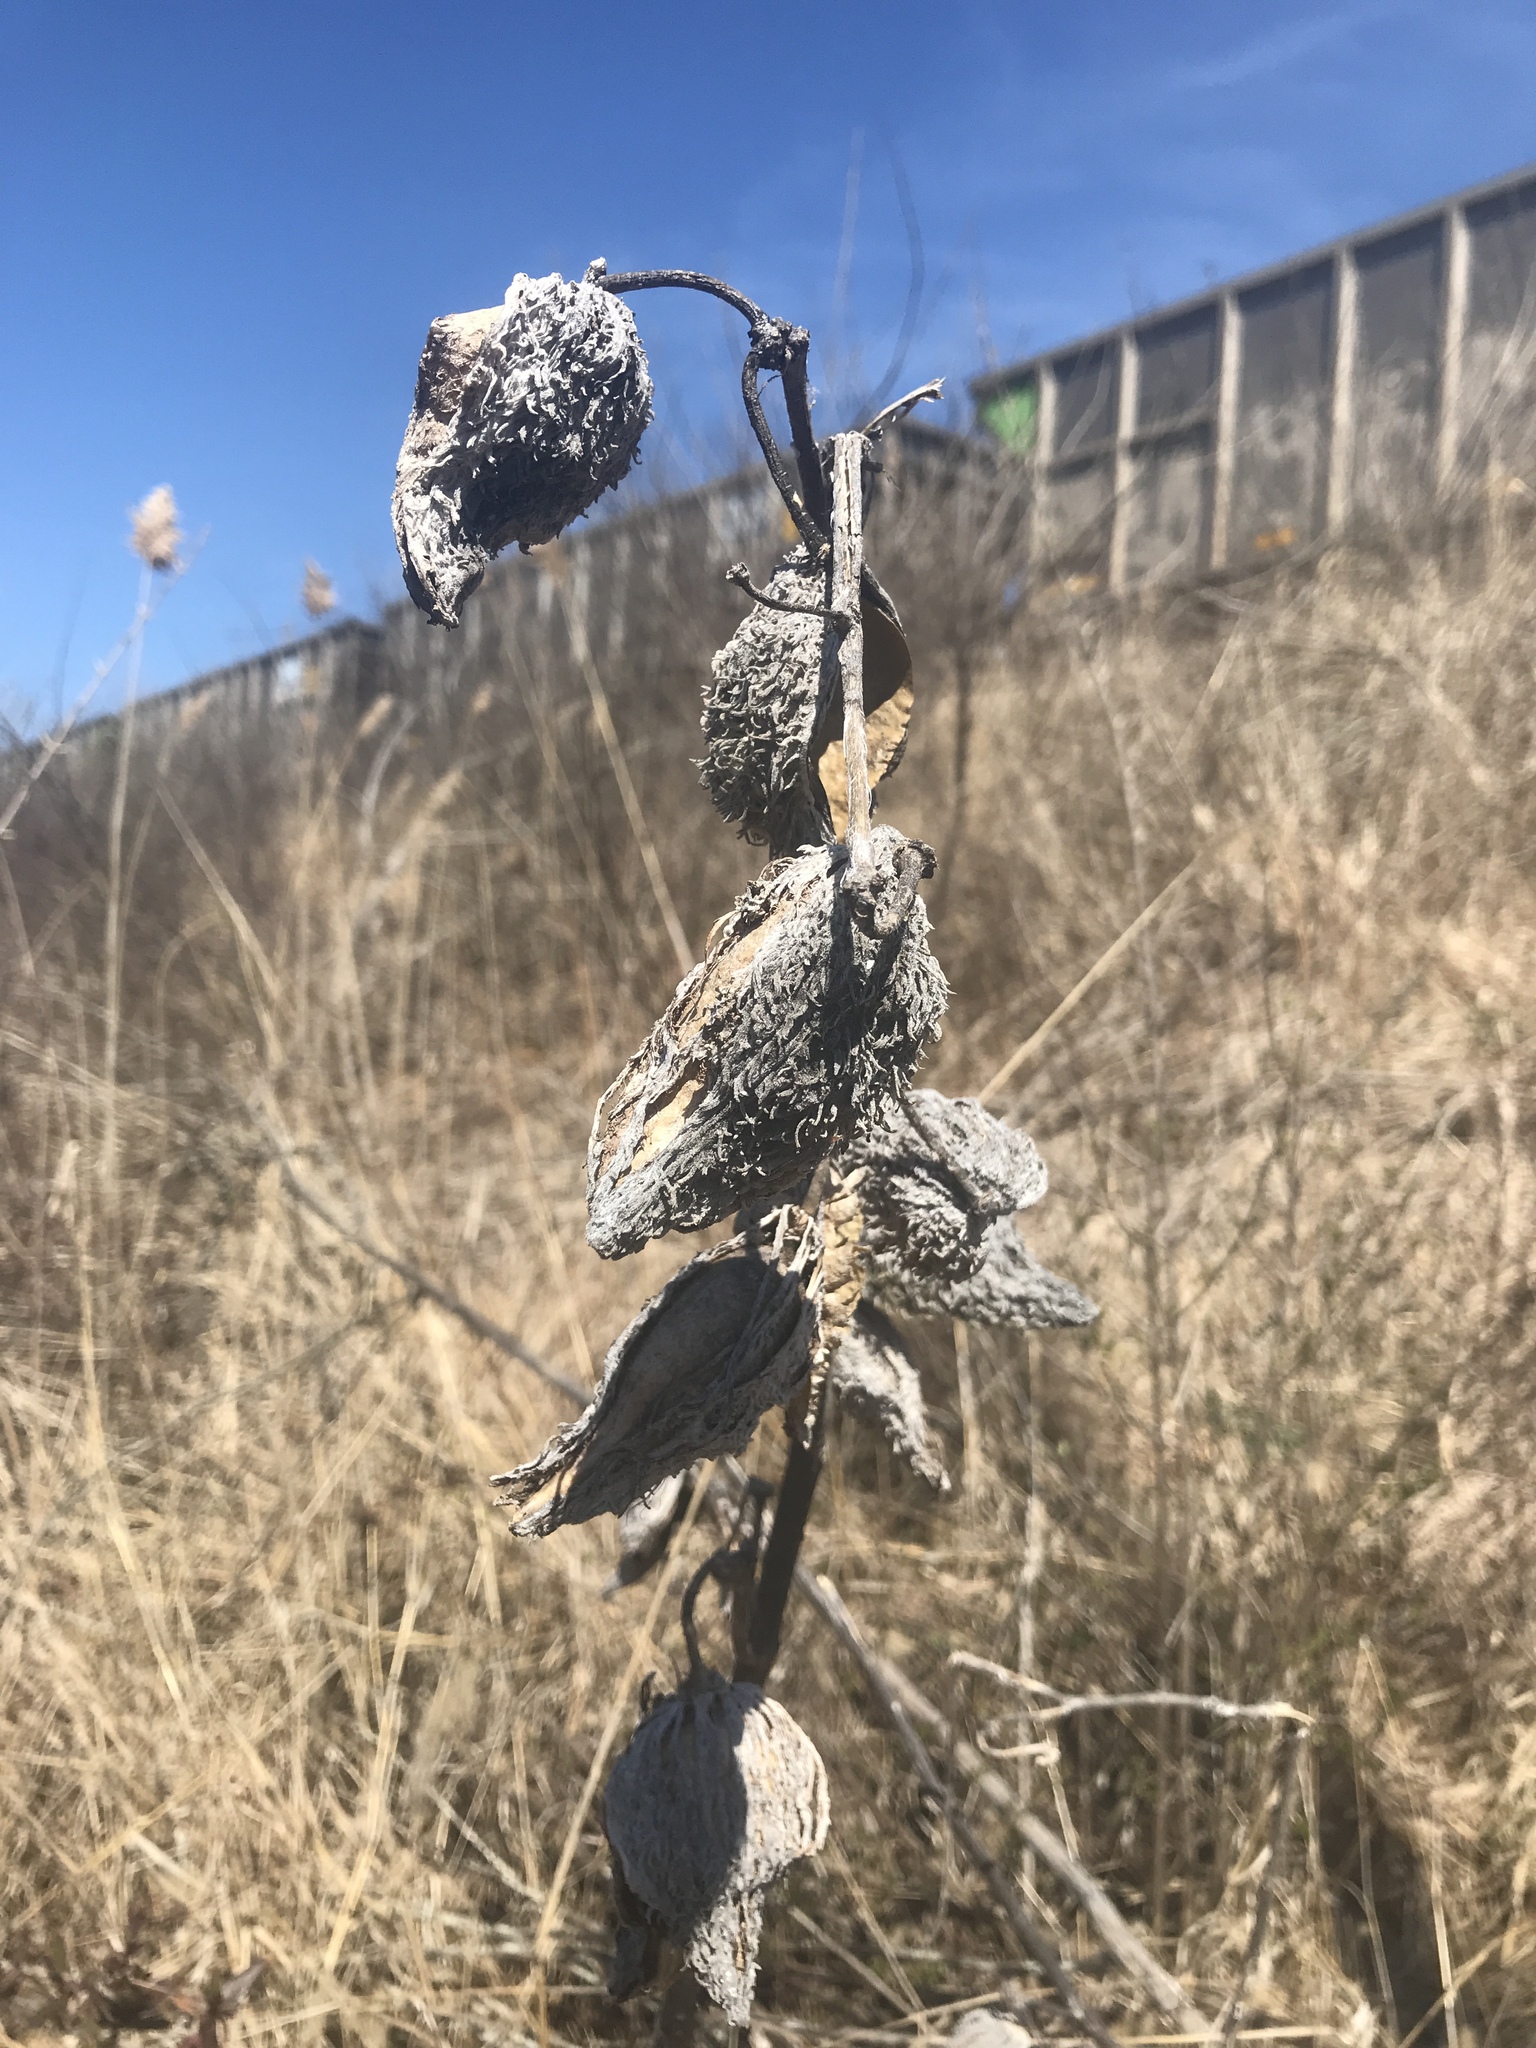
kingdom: Plantae
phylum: Tracheophyta
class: Magnoliopsida
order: Gentianales
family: Apocynaceae
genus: Asclepias
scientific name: Asclepias syriaca
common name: Common milkweed
